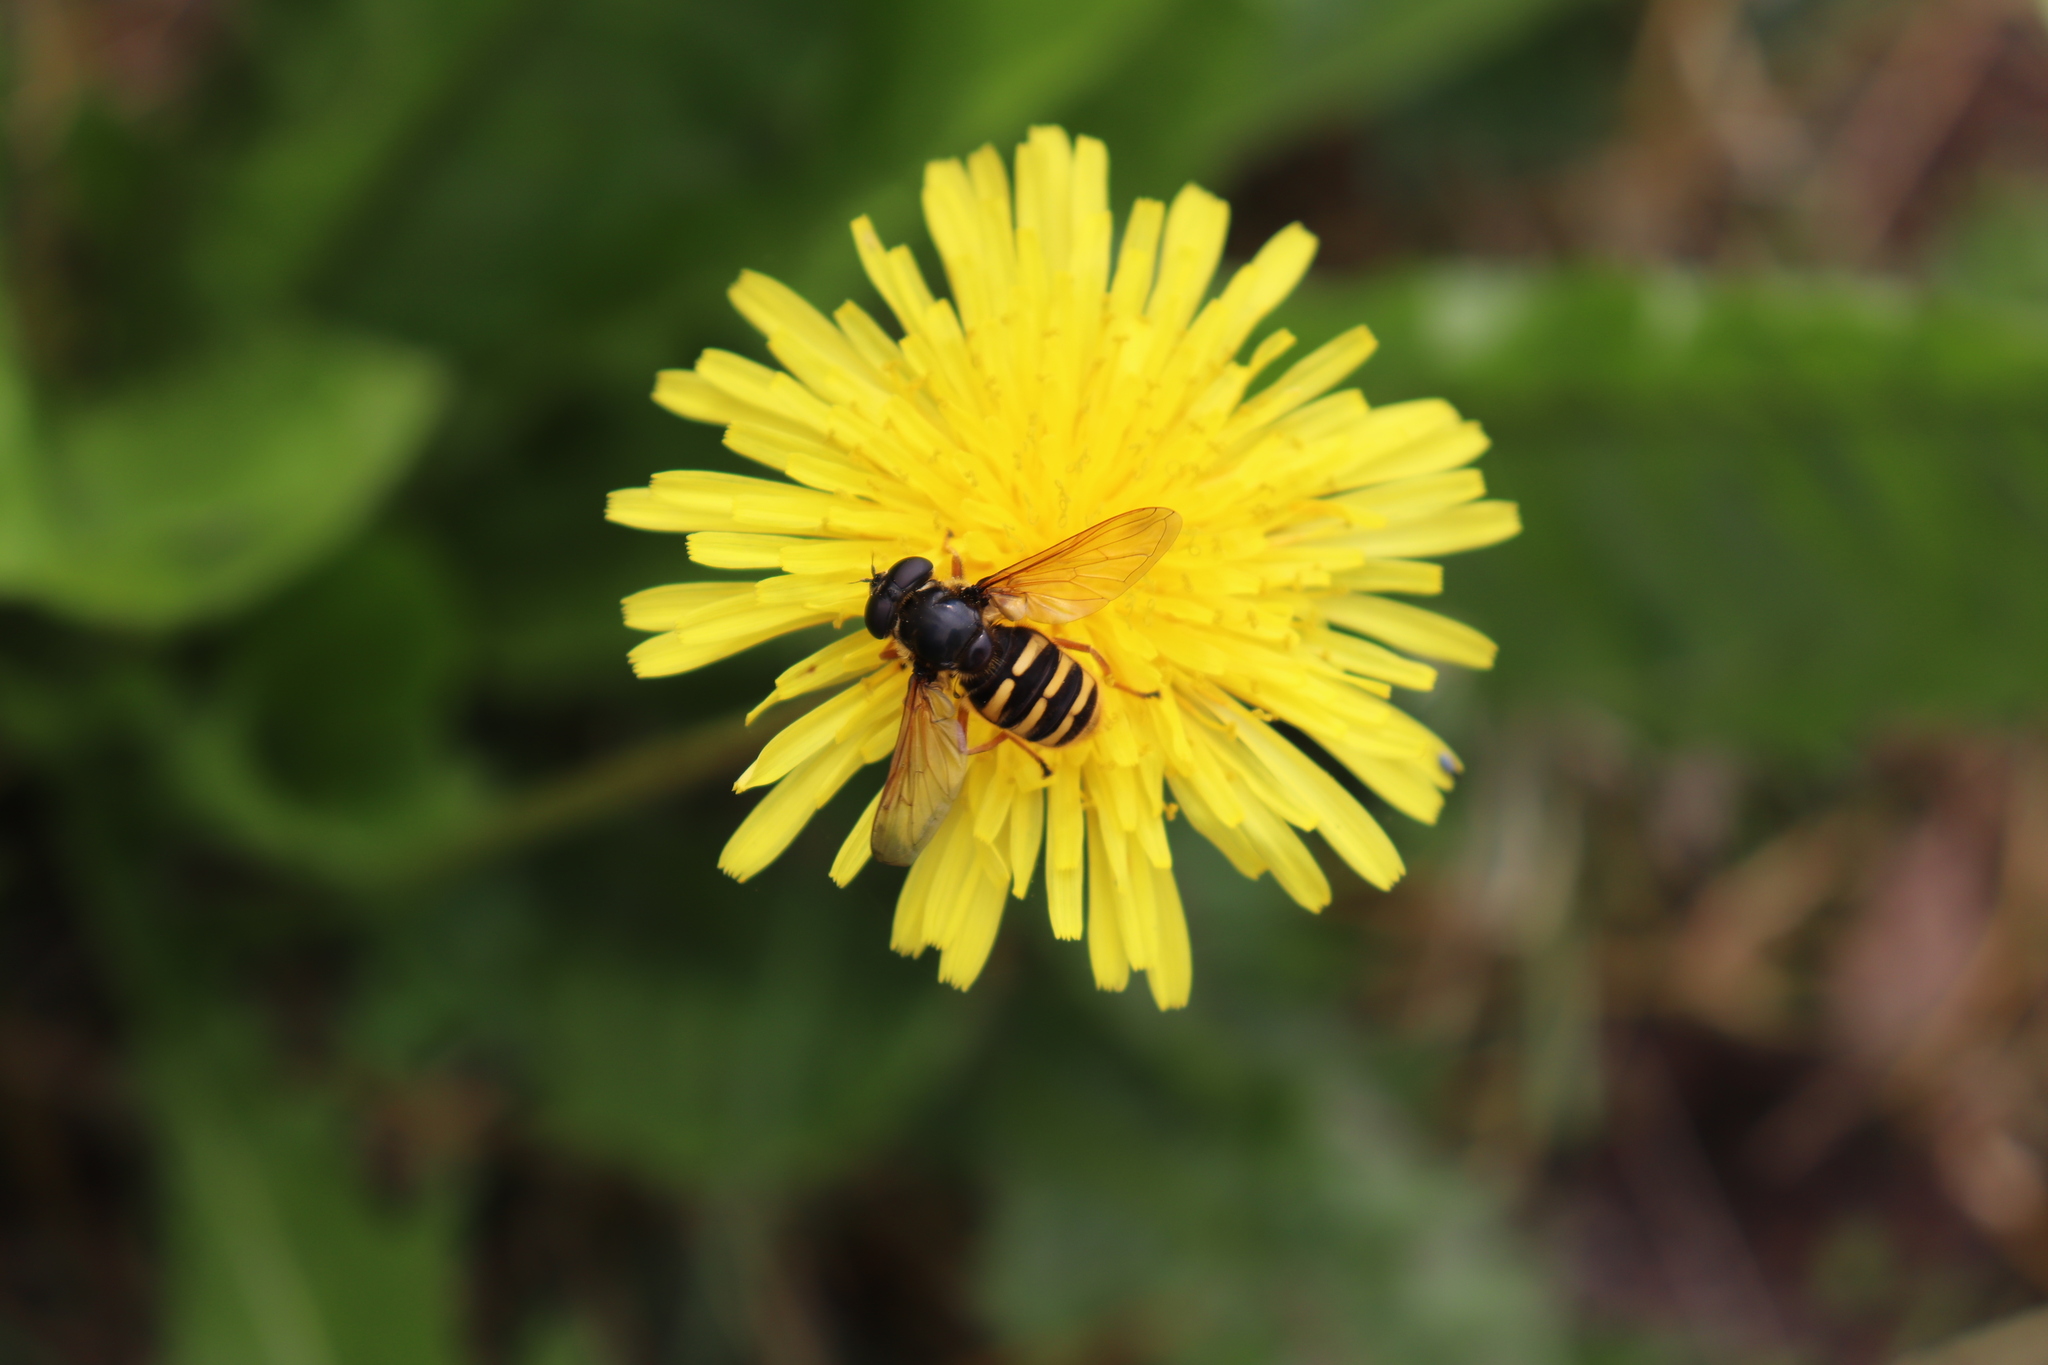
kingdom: Animalia
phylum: Arthropoda
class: Insecta
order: Diptera
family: Syrphidae
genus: Sericomyia
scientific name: Sericomyia silentis
